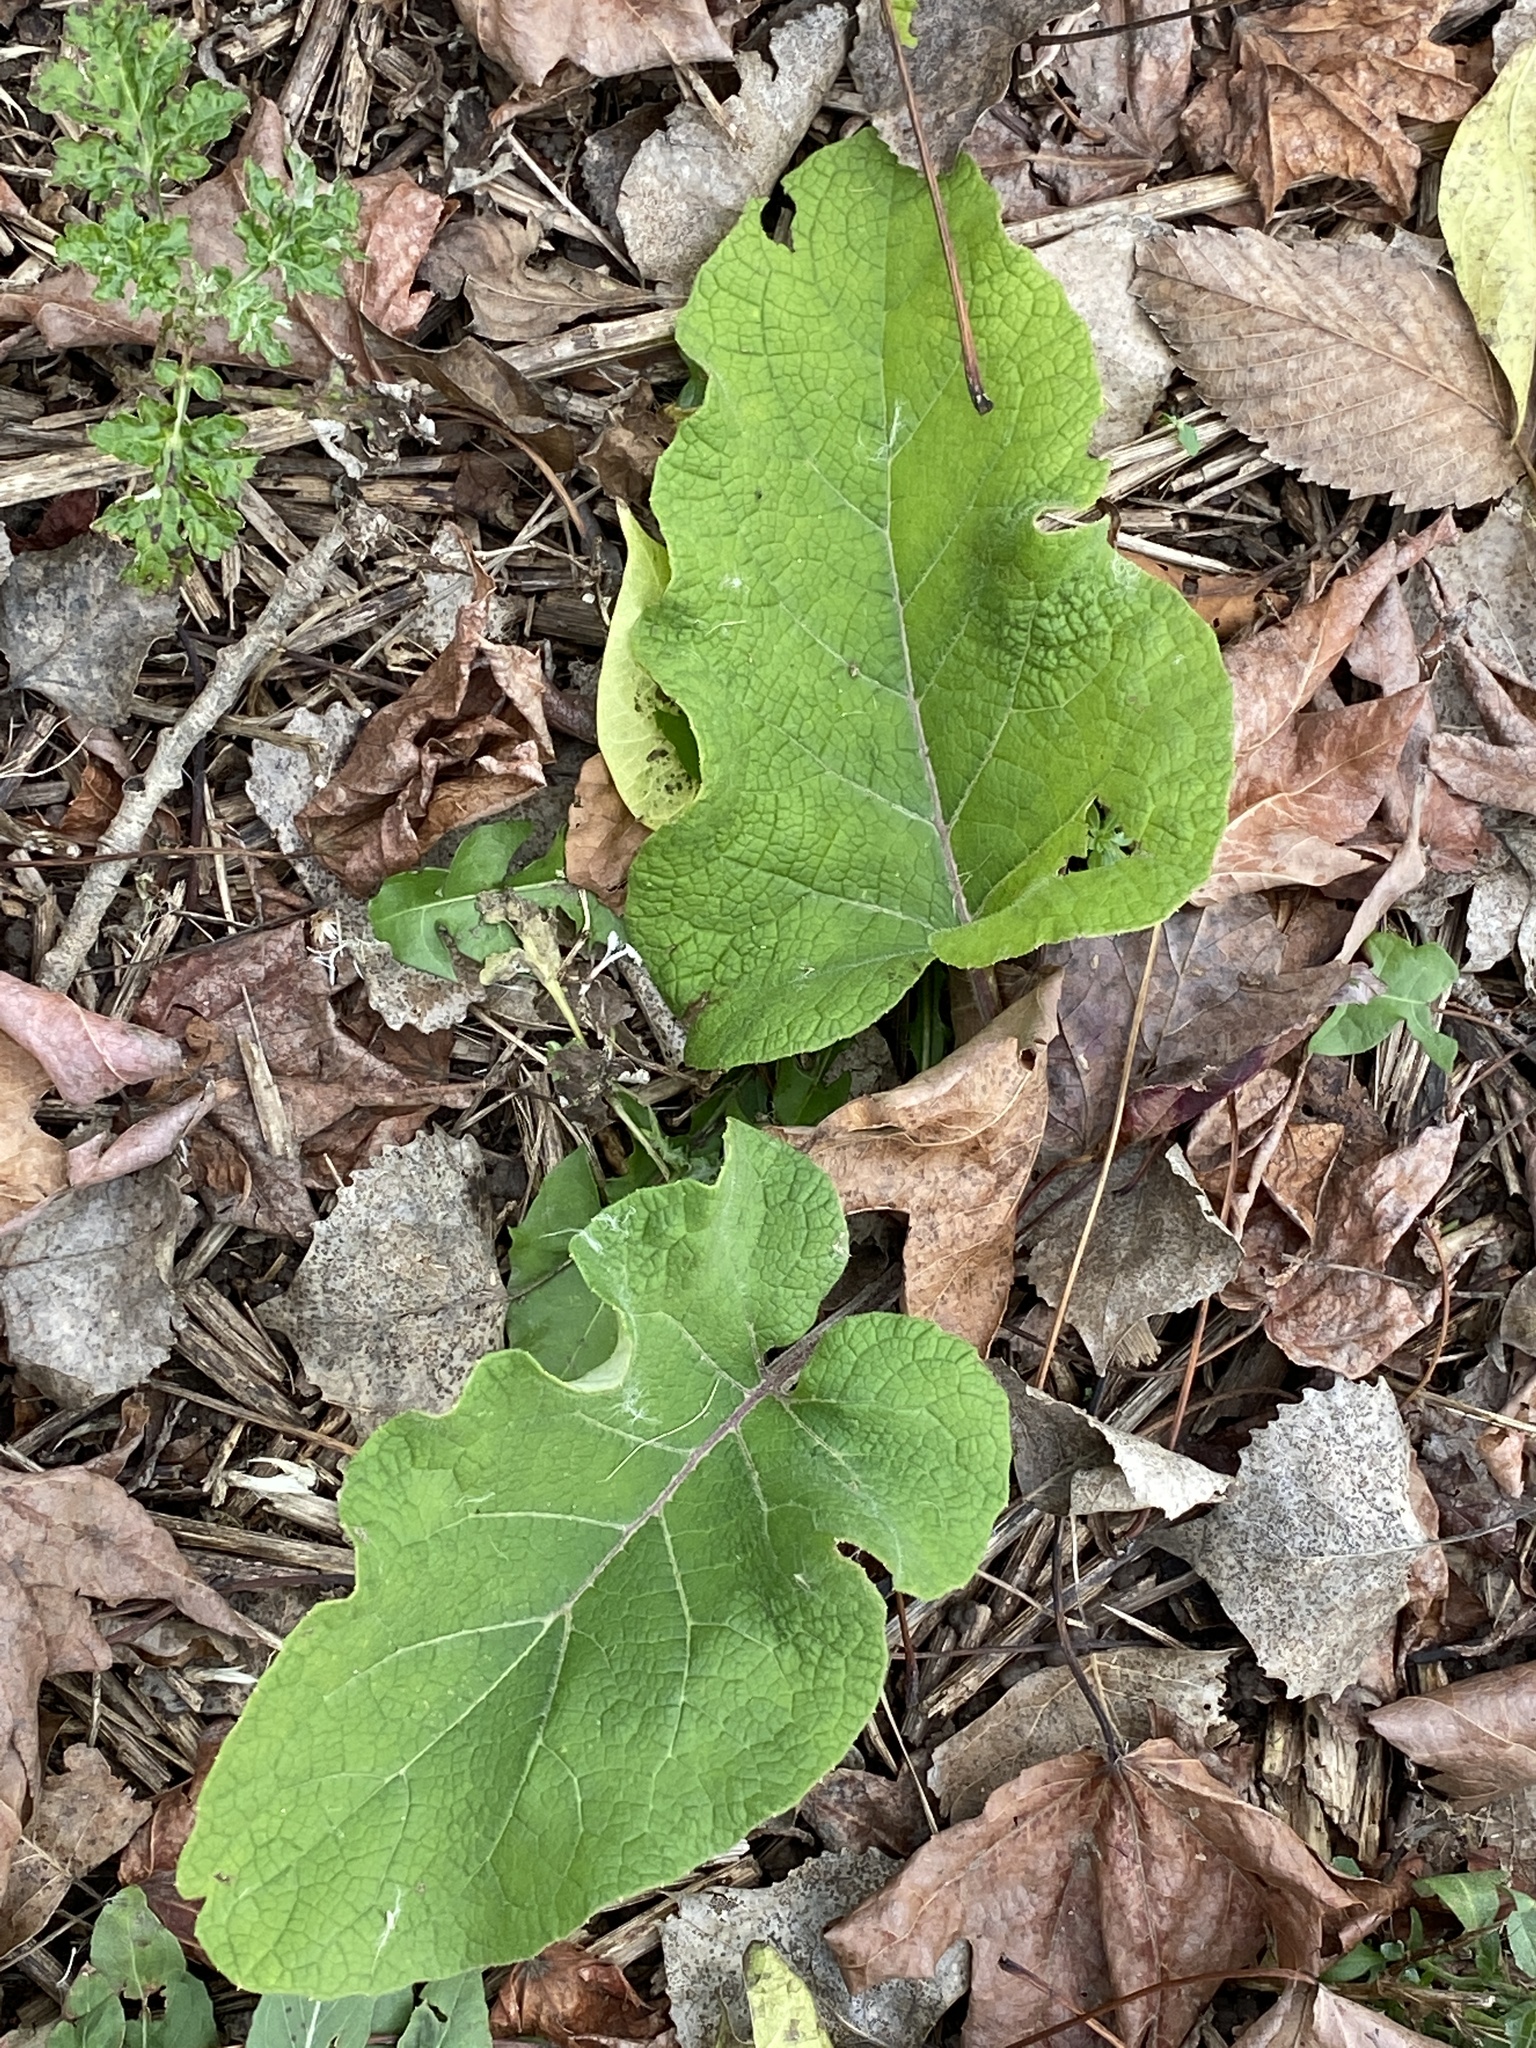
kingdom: Plantae
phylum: Tracheophyta
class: Magnoliopsida
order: Asterales
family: Asteraceae
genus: Arctium
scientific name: Arctium
